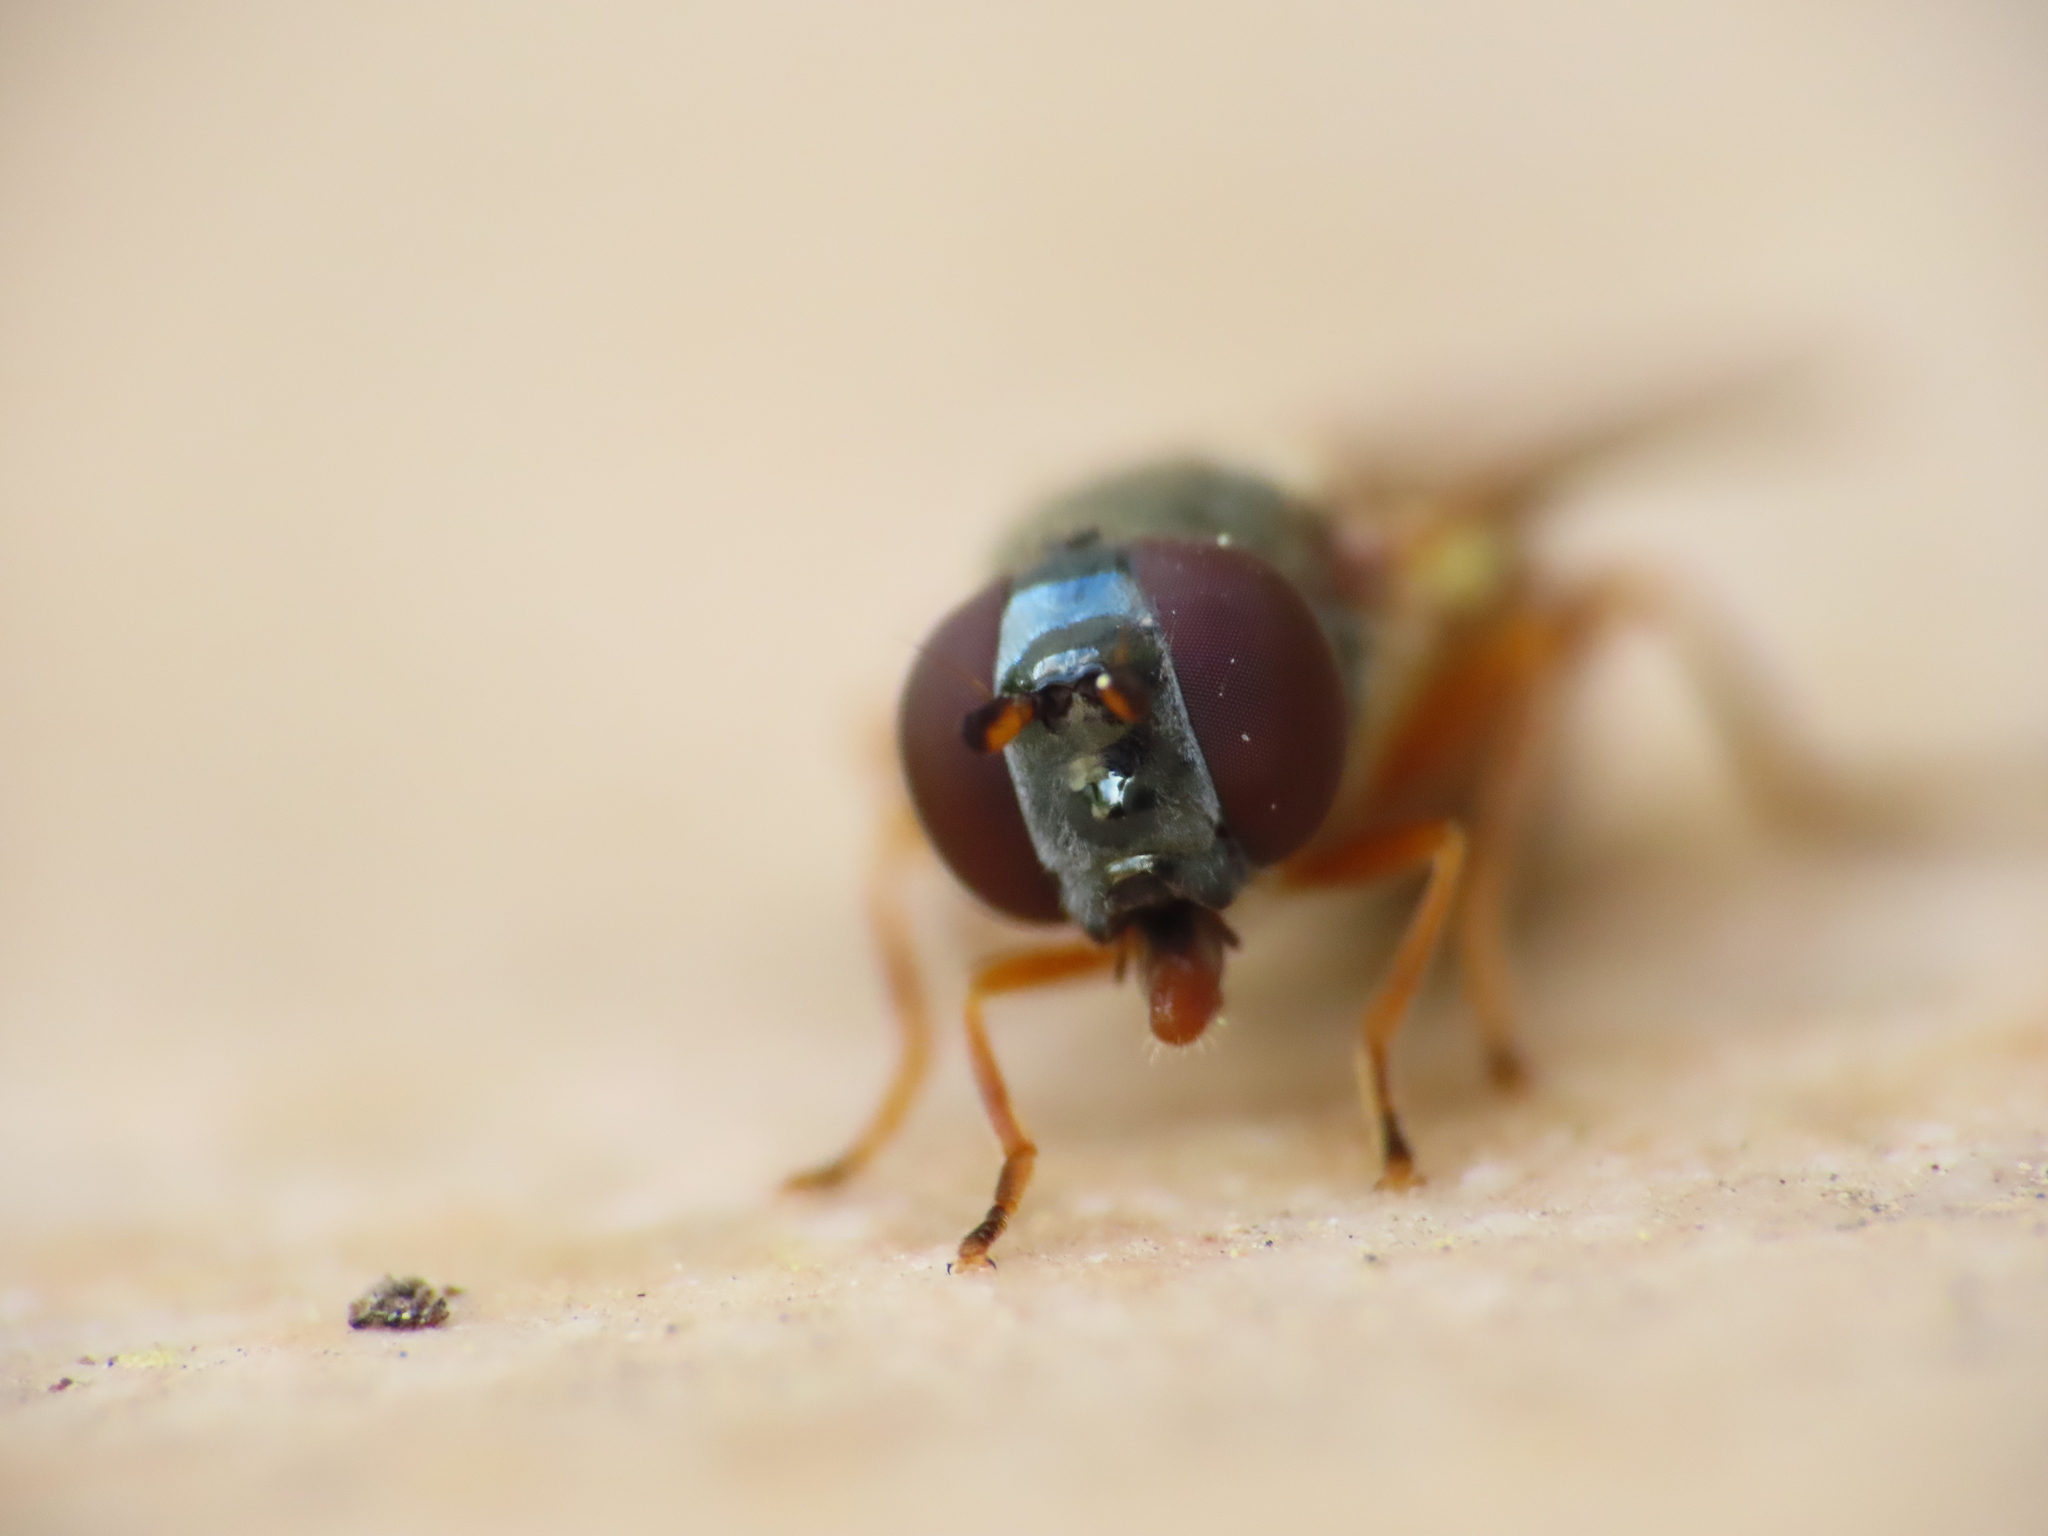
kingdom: Animalia
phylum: Arthropoda
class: Insecta
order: Diptera
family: Syrphidae
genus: Melanostoma
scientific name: Melanostoma mellina
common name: Hover fly
